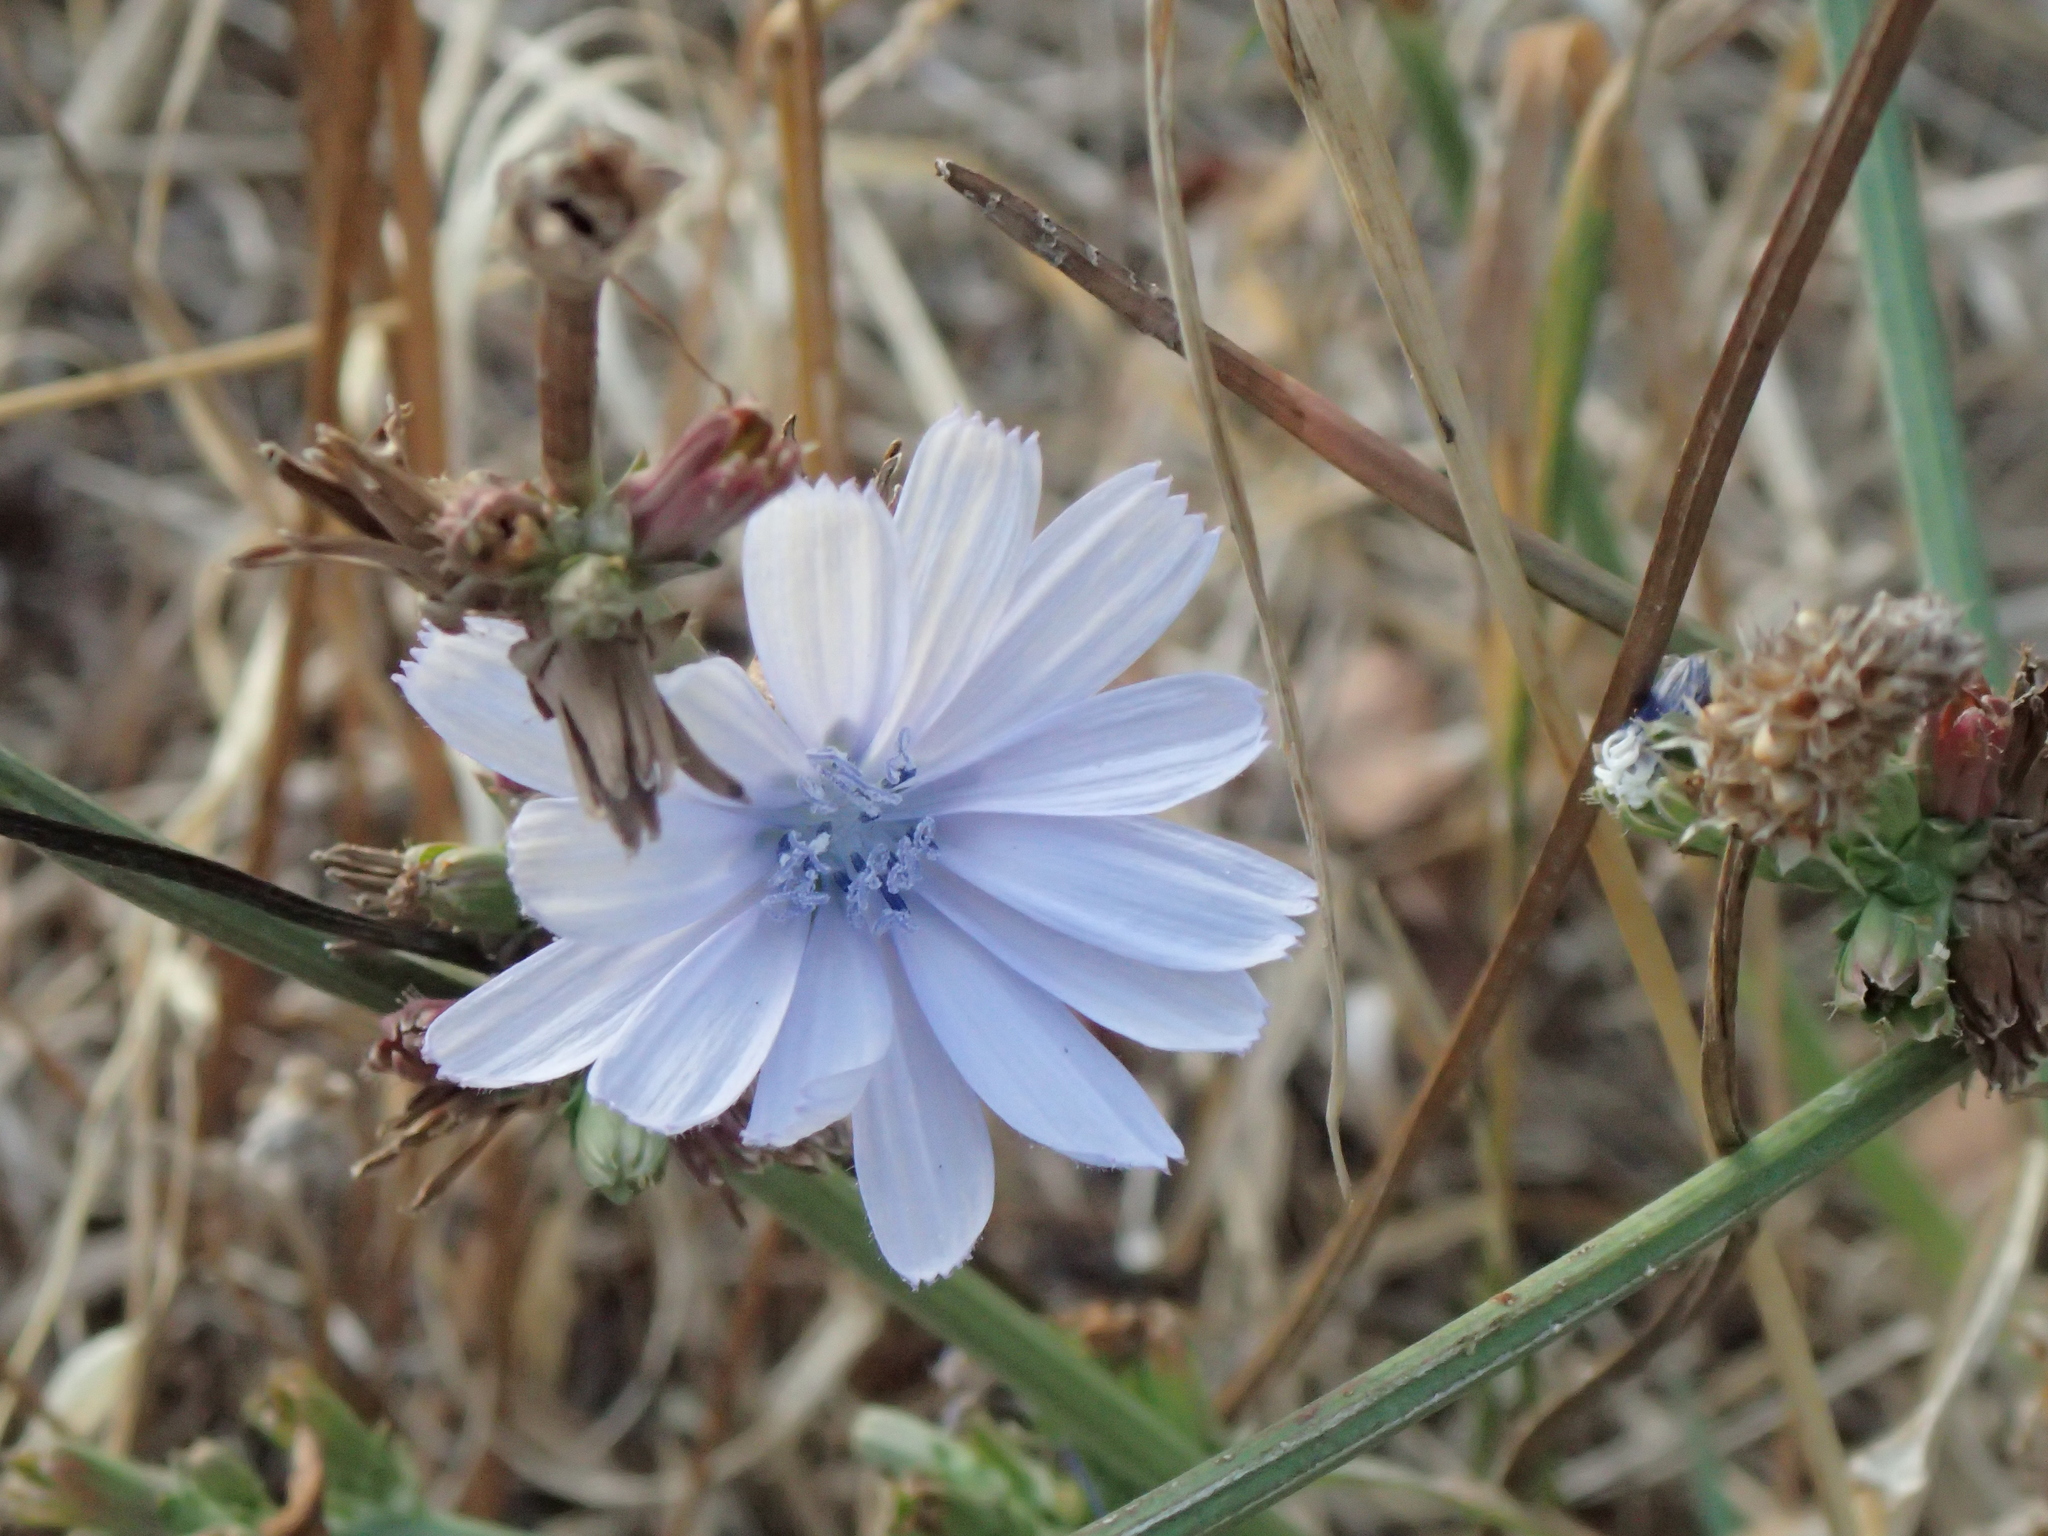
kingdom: Plantae
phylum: Tracheophyta
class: Magnoliopsida
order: Asterales
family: Asteraceae
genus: Cichorium
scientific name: Cichorium intybus
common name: Chicory
